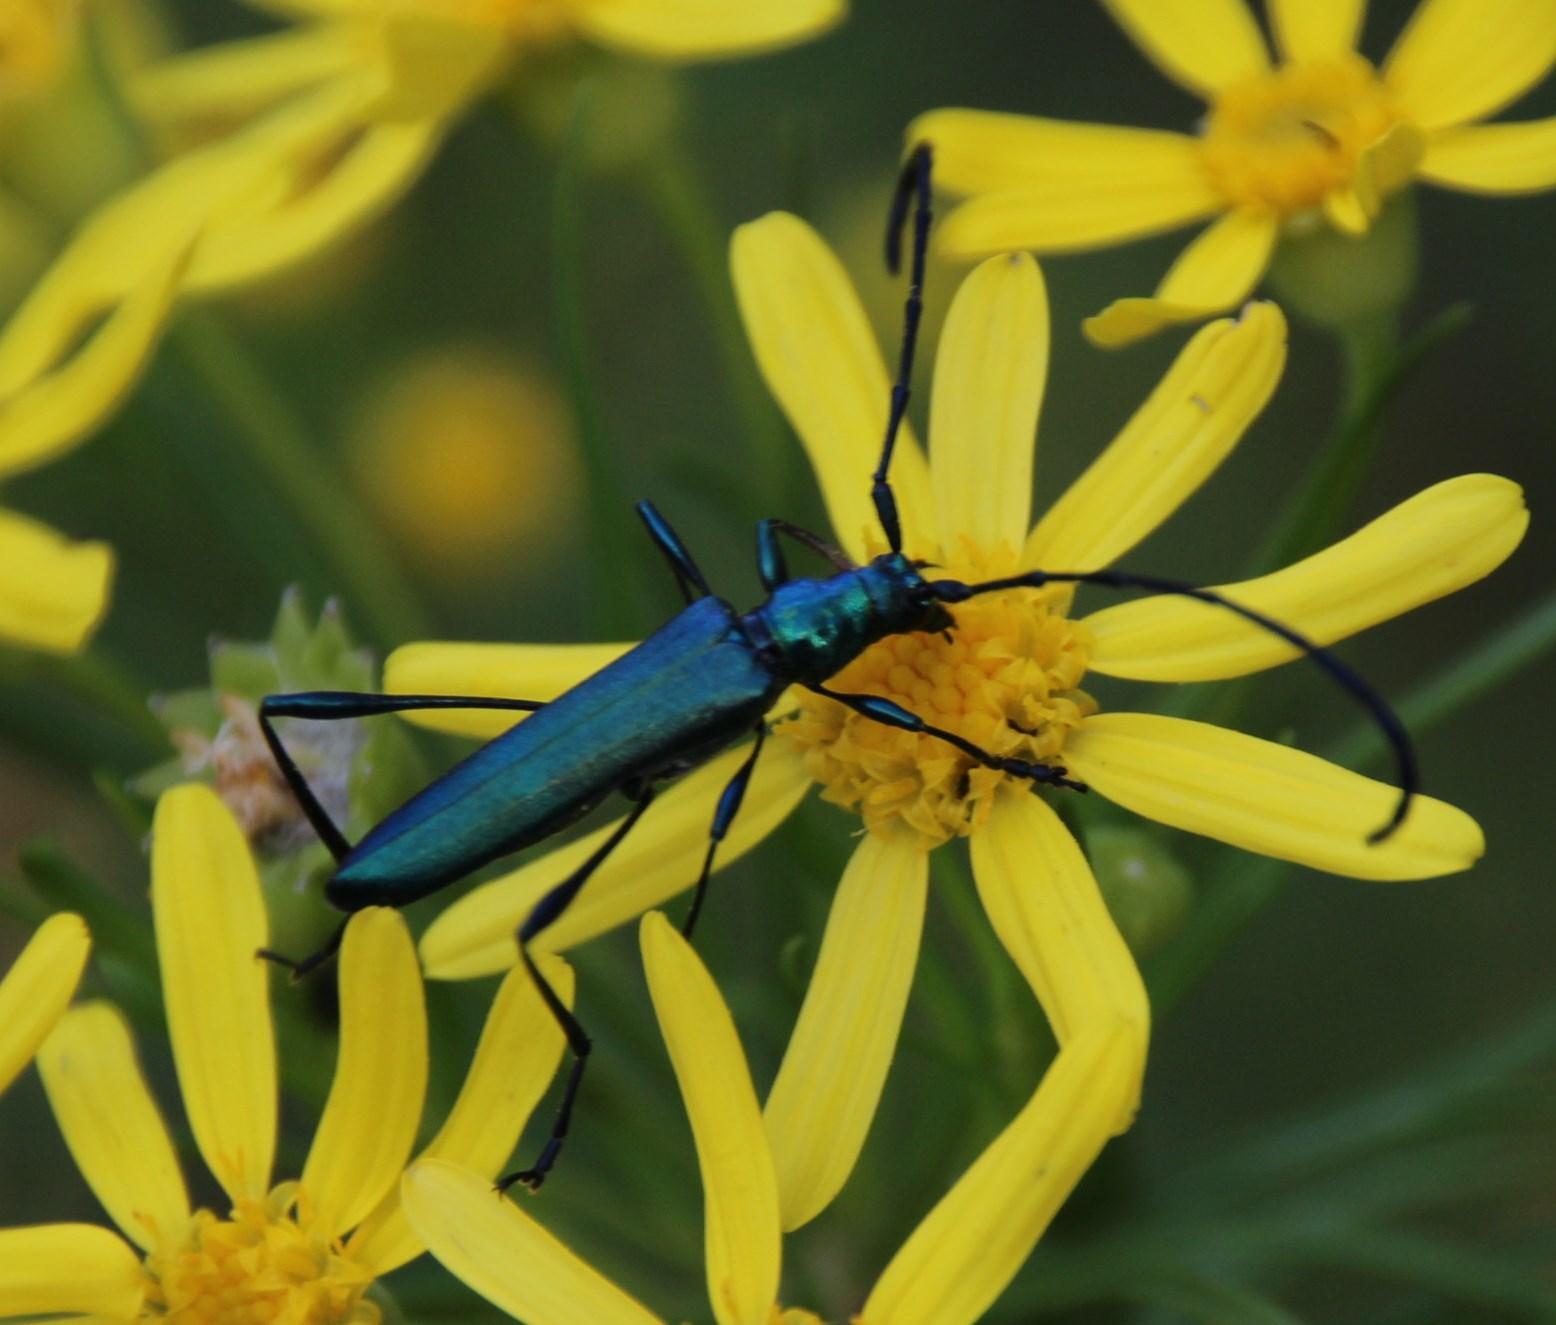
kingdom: Animalia
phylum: Arthropoda
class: Insecta
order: Coleoptera
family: Cerambycidae
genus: Promeces
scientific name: Promeces longipes
